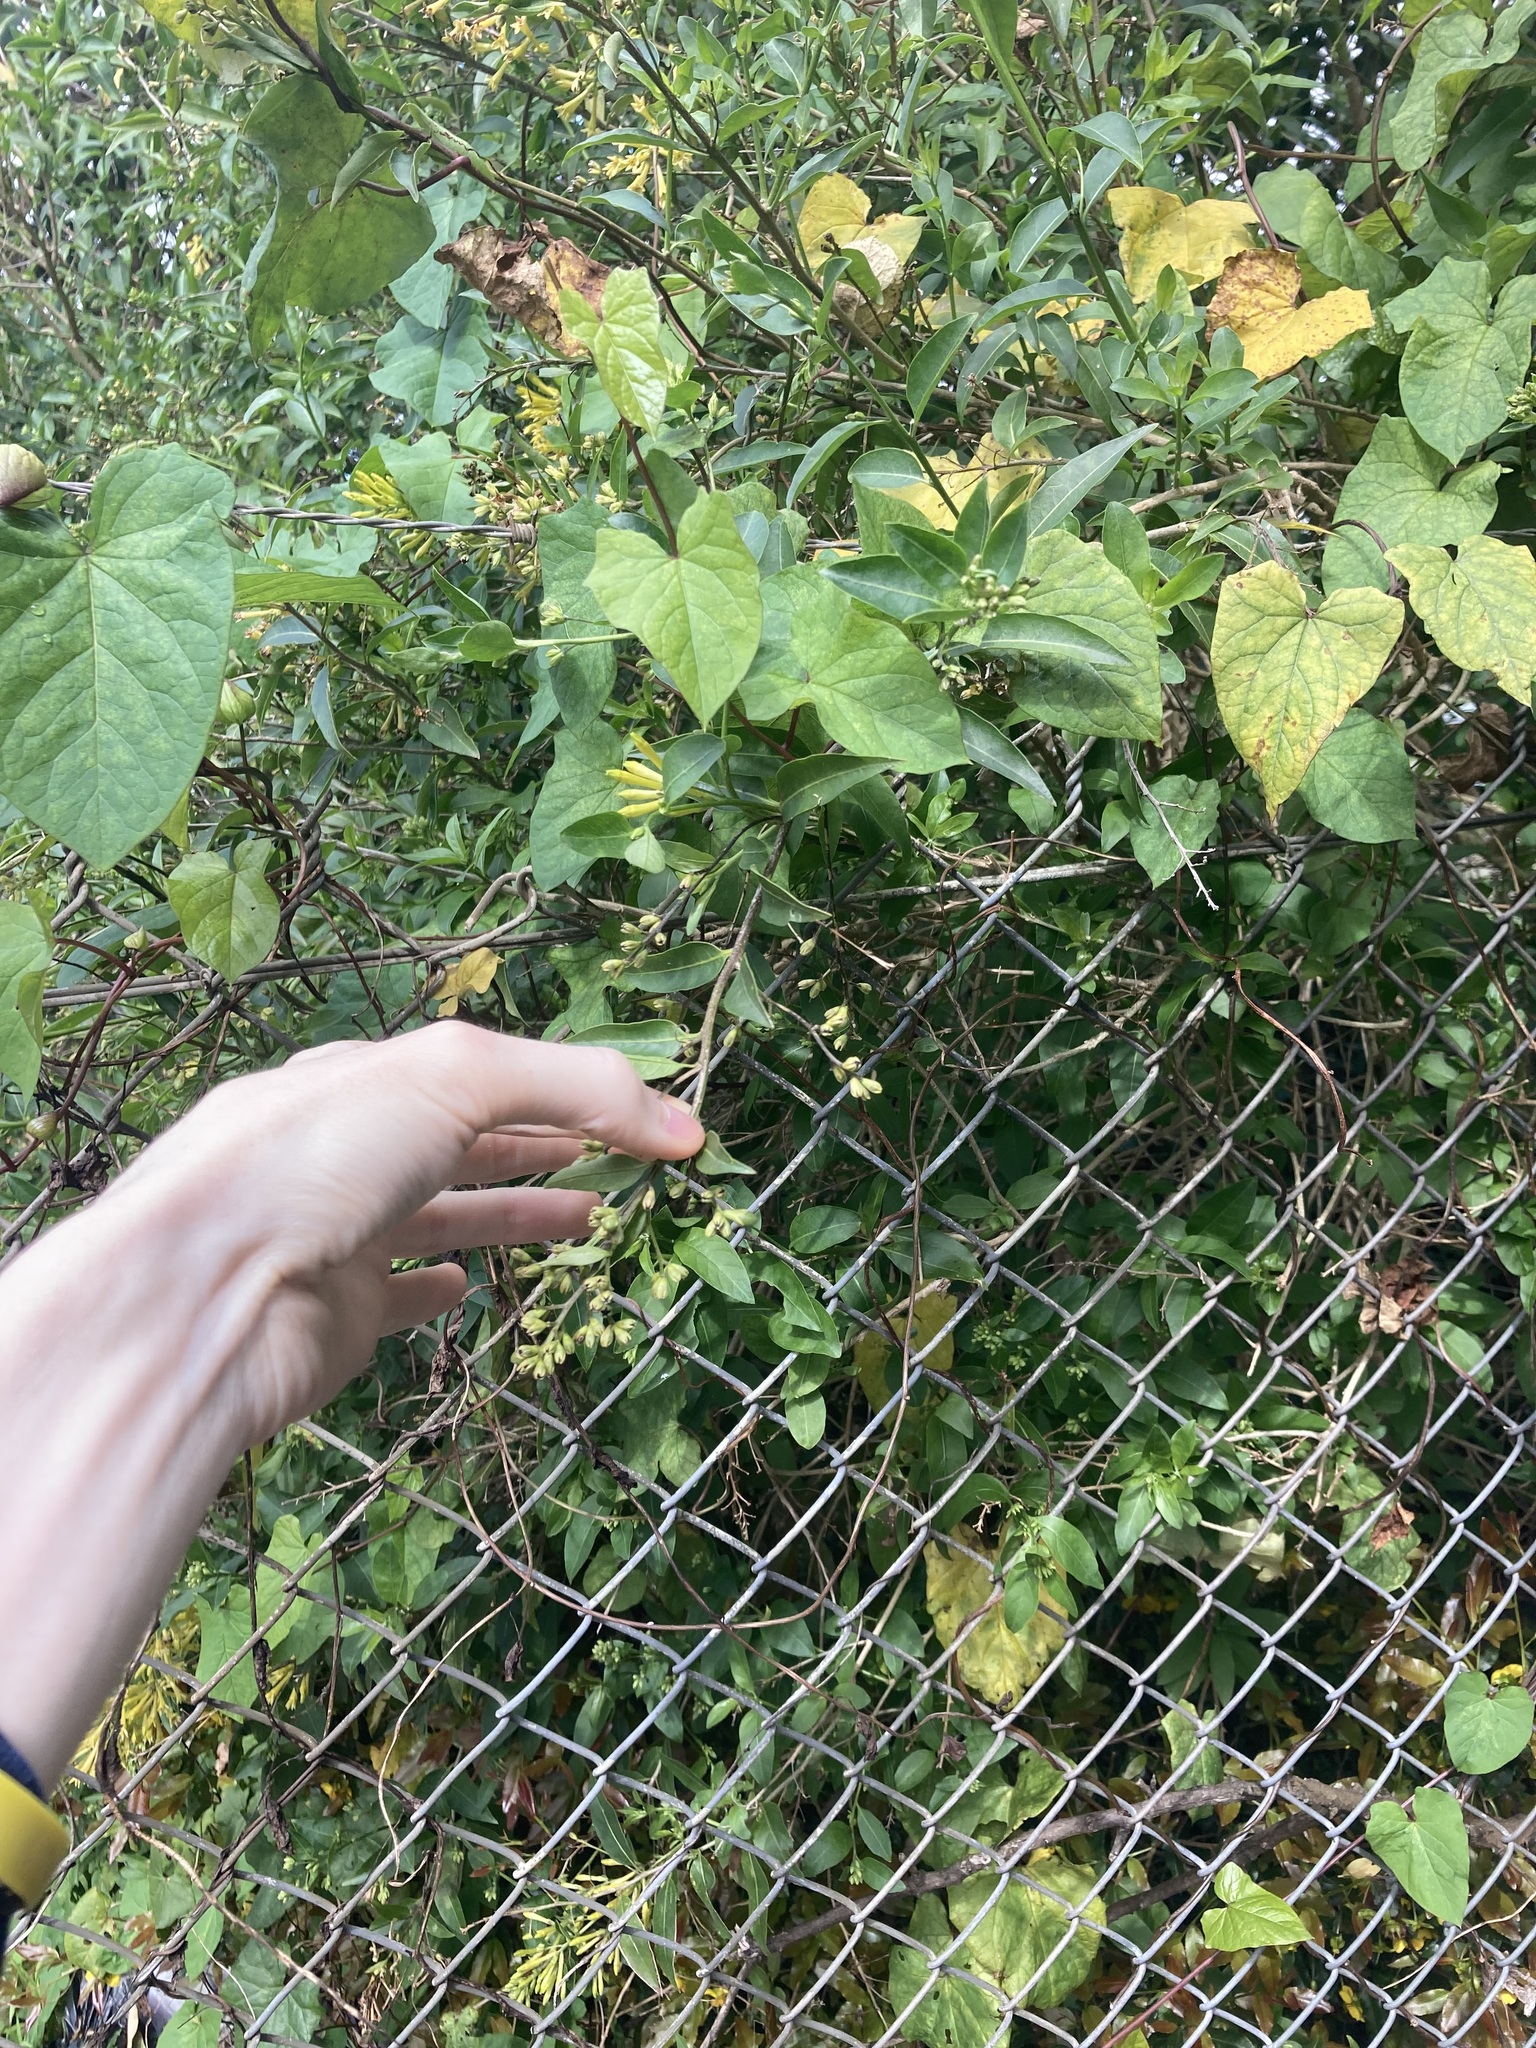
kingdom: Plantae
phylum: Tracheophyta
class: Magnoliopsida
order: Solanales
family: Solanaceae
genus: Cestrum
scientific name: Cestrum parqui
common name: Chilean cestrum
